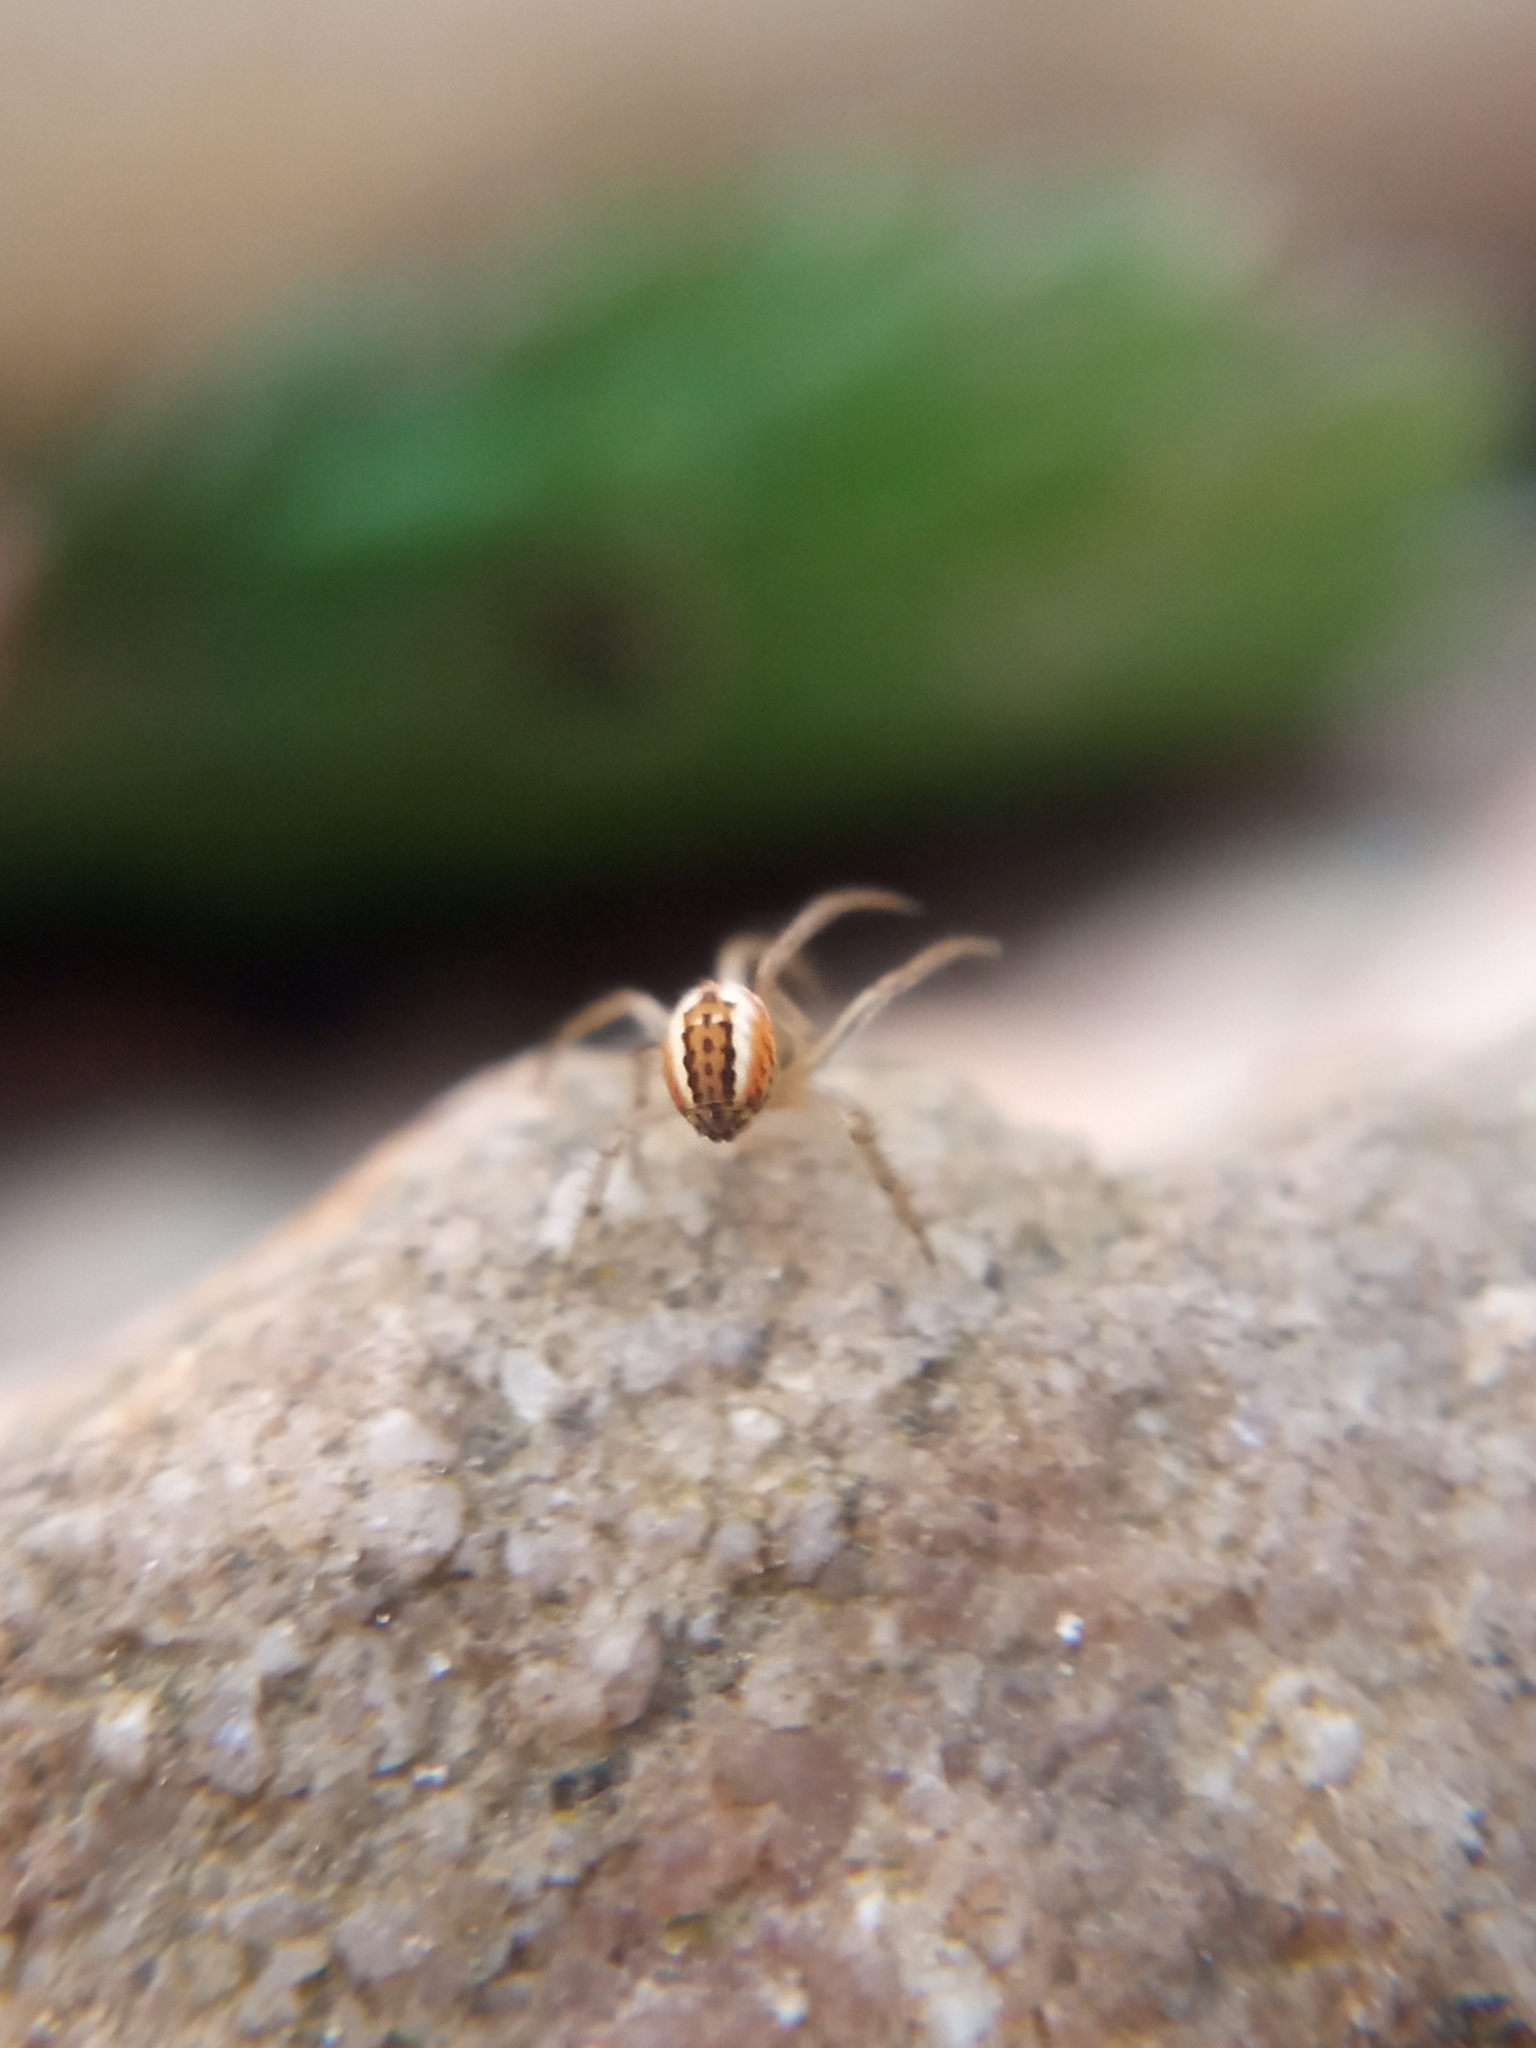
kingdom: Animalia
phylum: Arthropoda
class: Arachnida
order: Araneae
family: Araneidae
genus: Mangora
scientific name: Mangora acalypha
